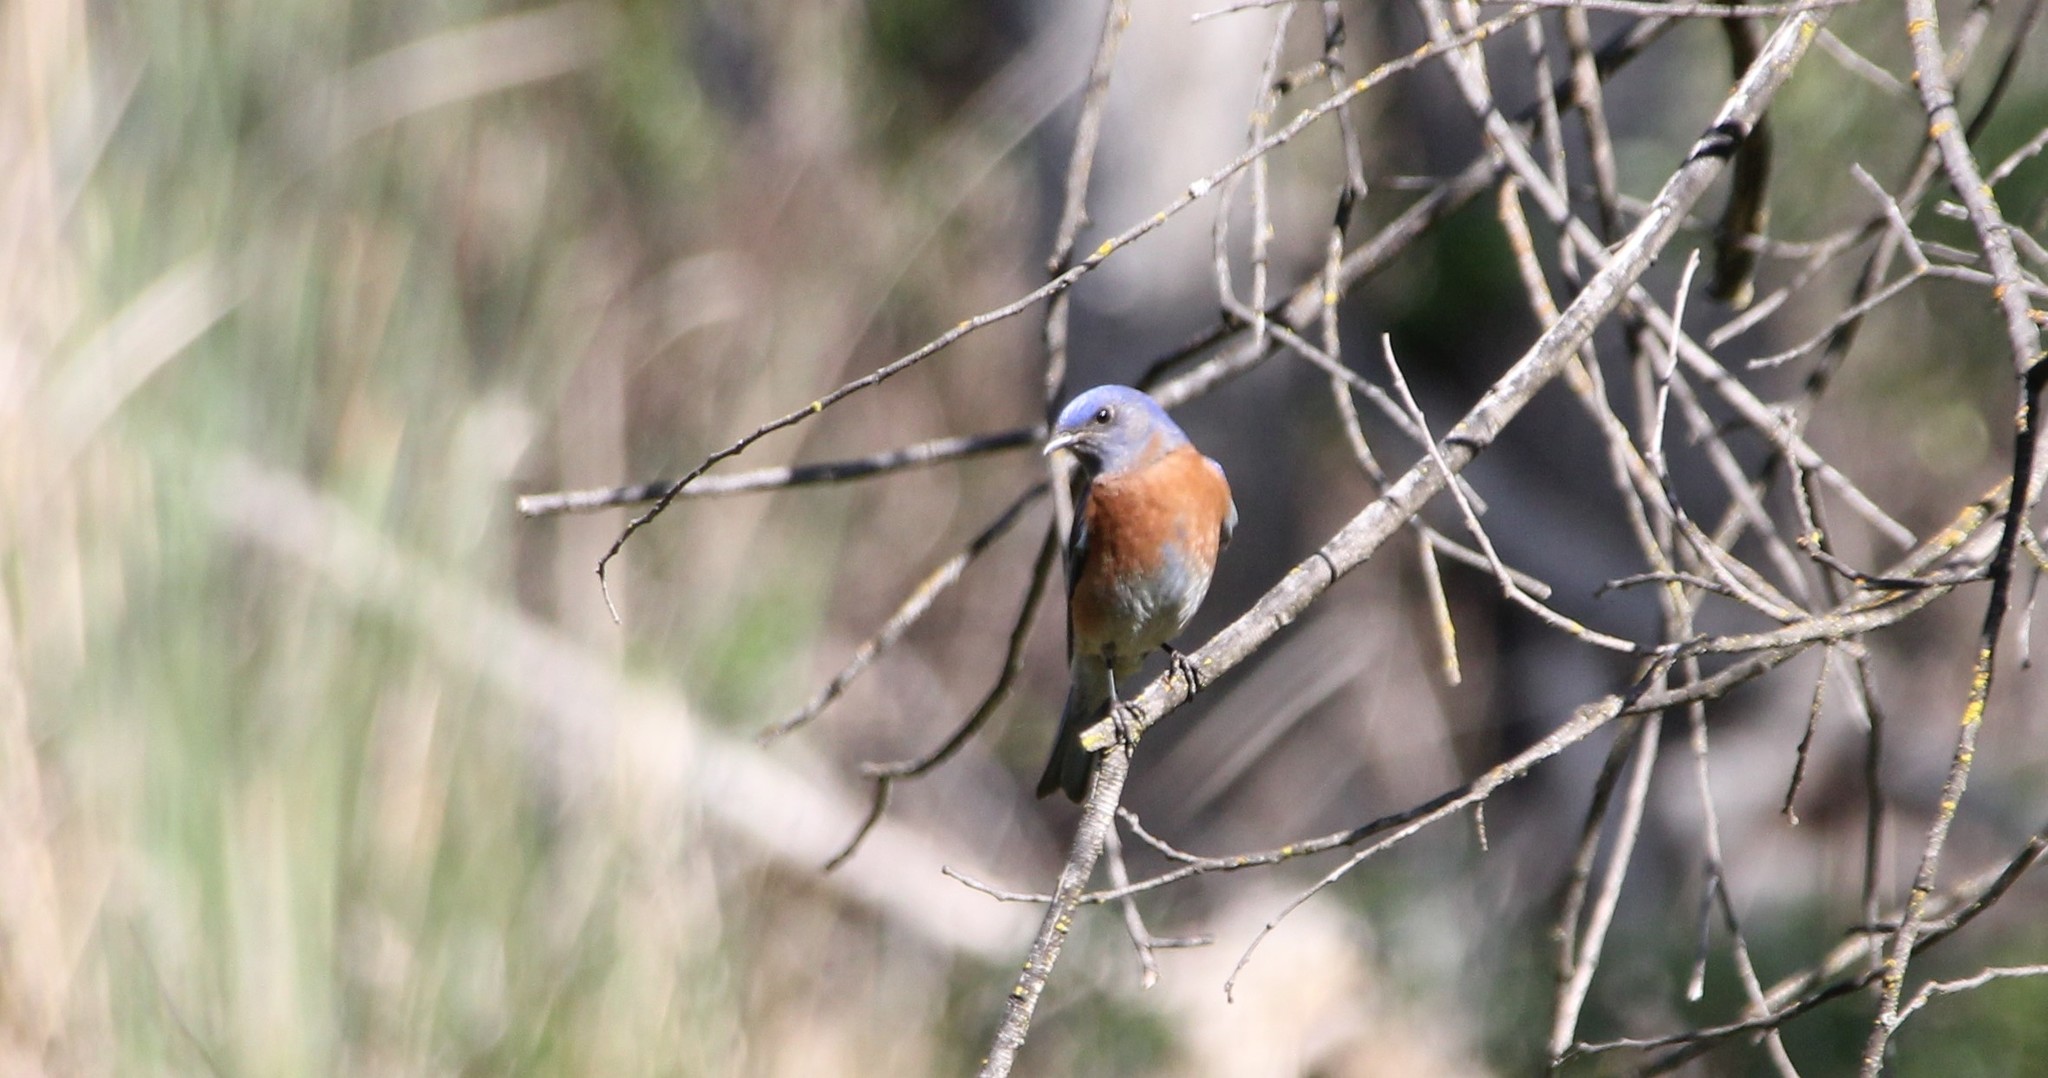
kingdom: Animalia
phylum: Chordata
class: Aves
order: Passeriformes
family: Turdidae
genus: Sialia
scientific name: Sialia mexicana
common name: Western bluebird
